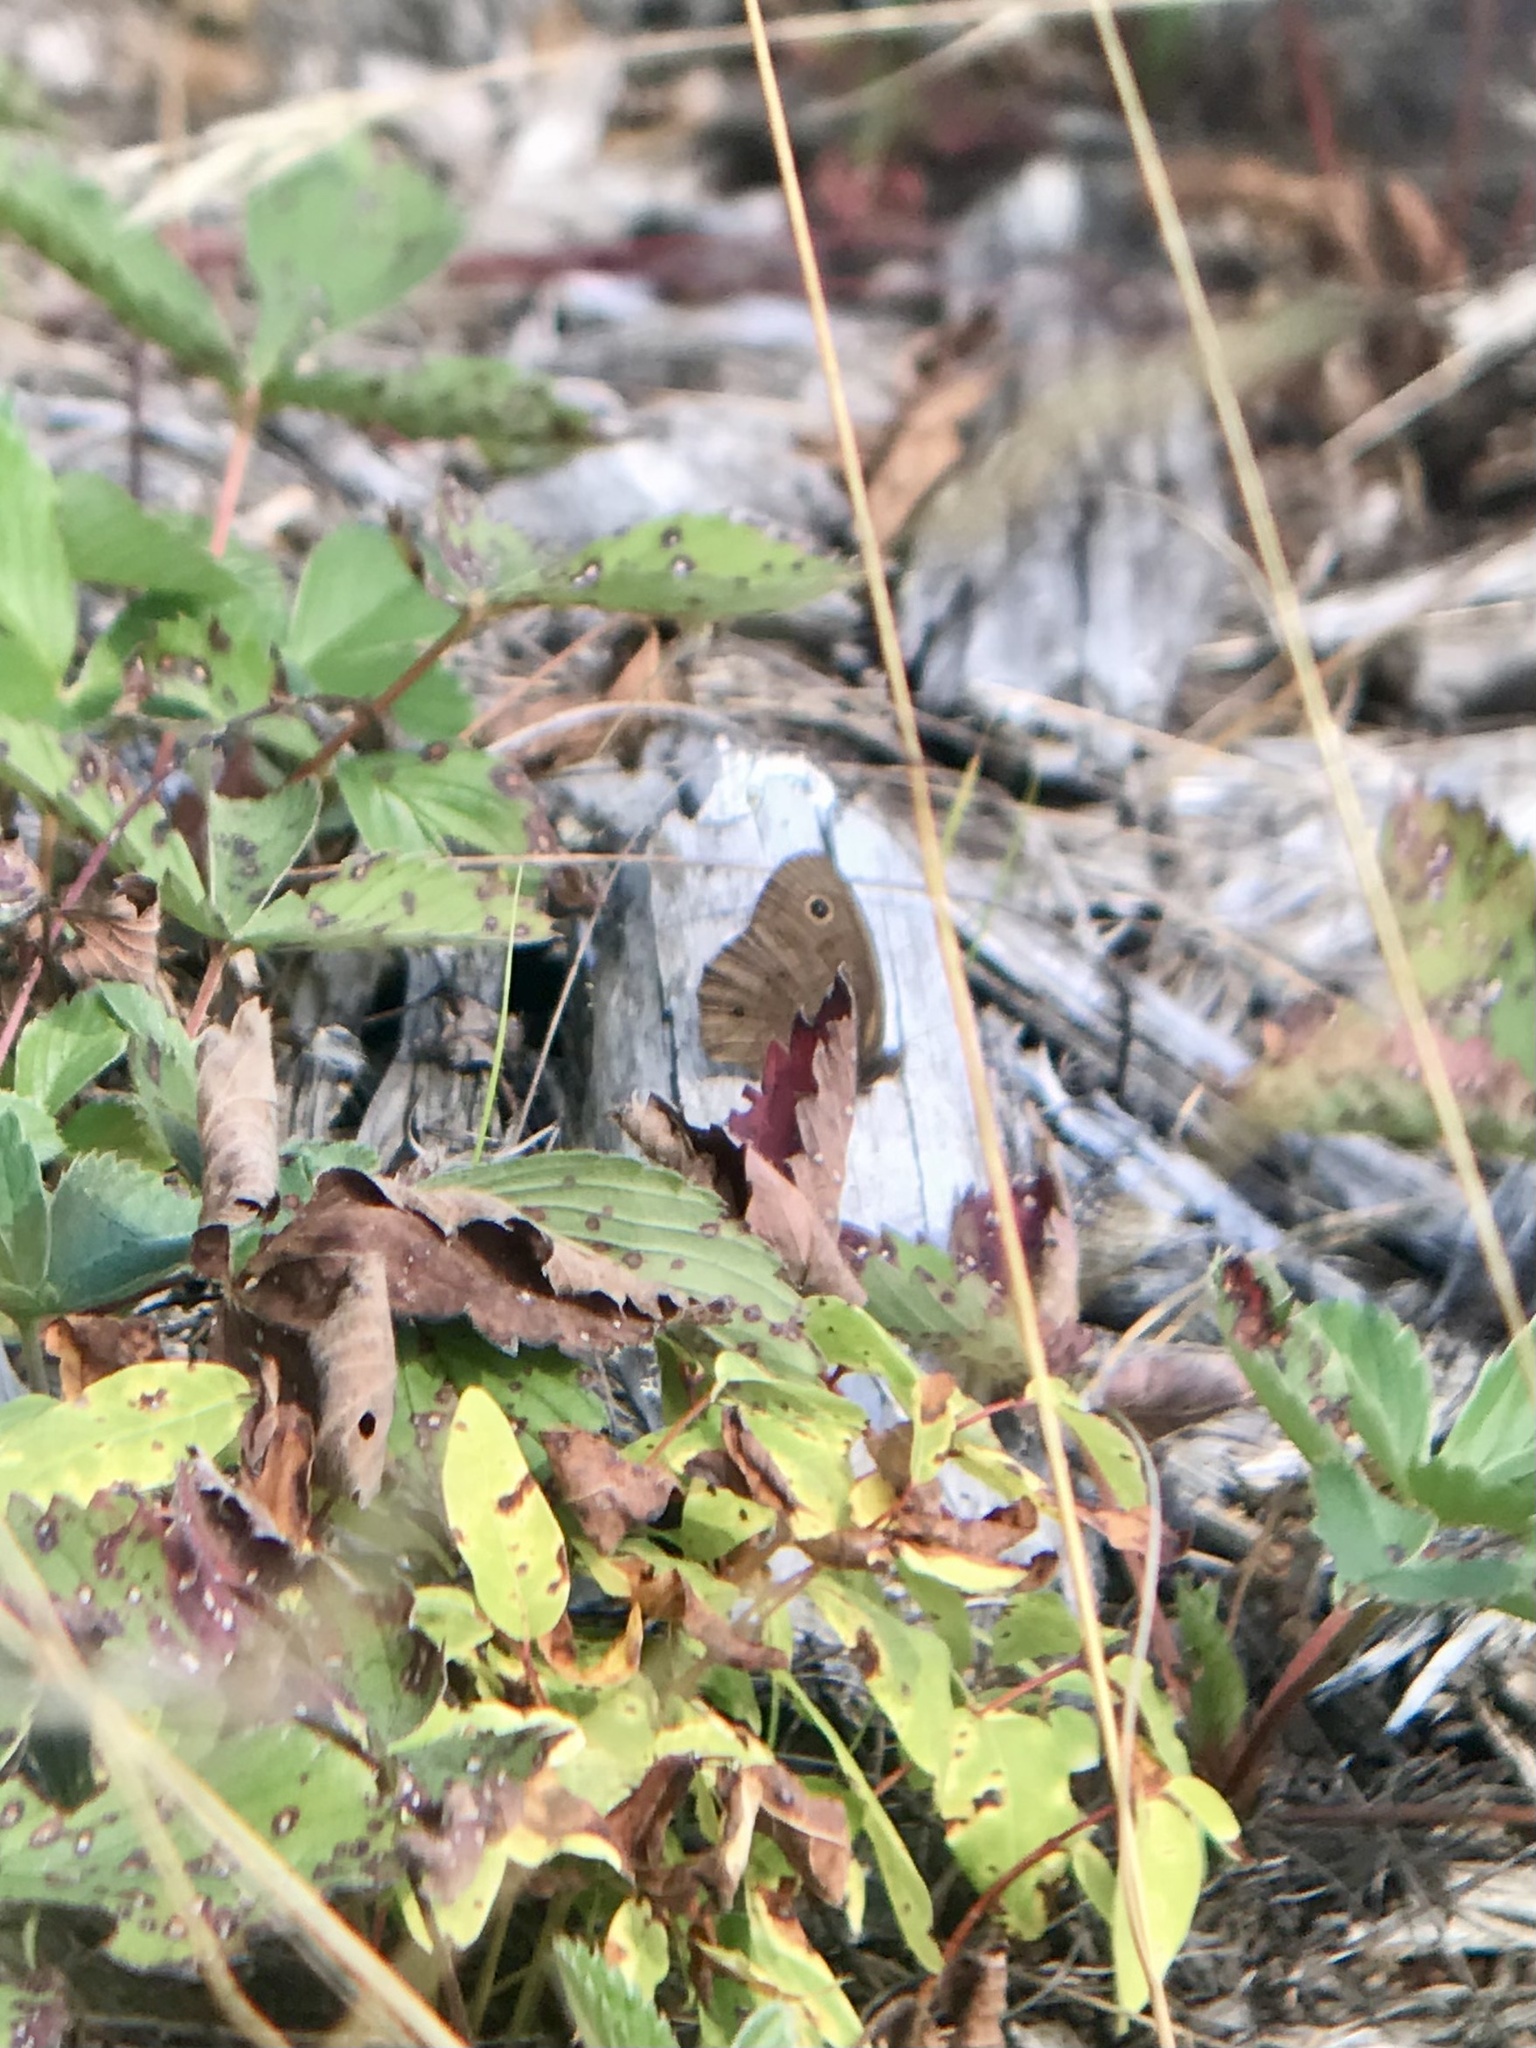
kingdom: Animalia
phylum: Arthropoda
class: Insecta
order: Lepidoptera
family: Nymphalidae
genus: Cercyonis
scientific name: Cercyonis pegala
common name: Common wood-nymph
